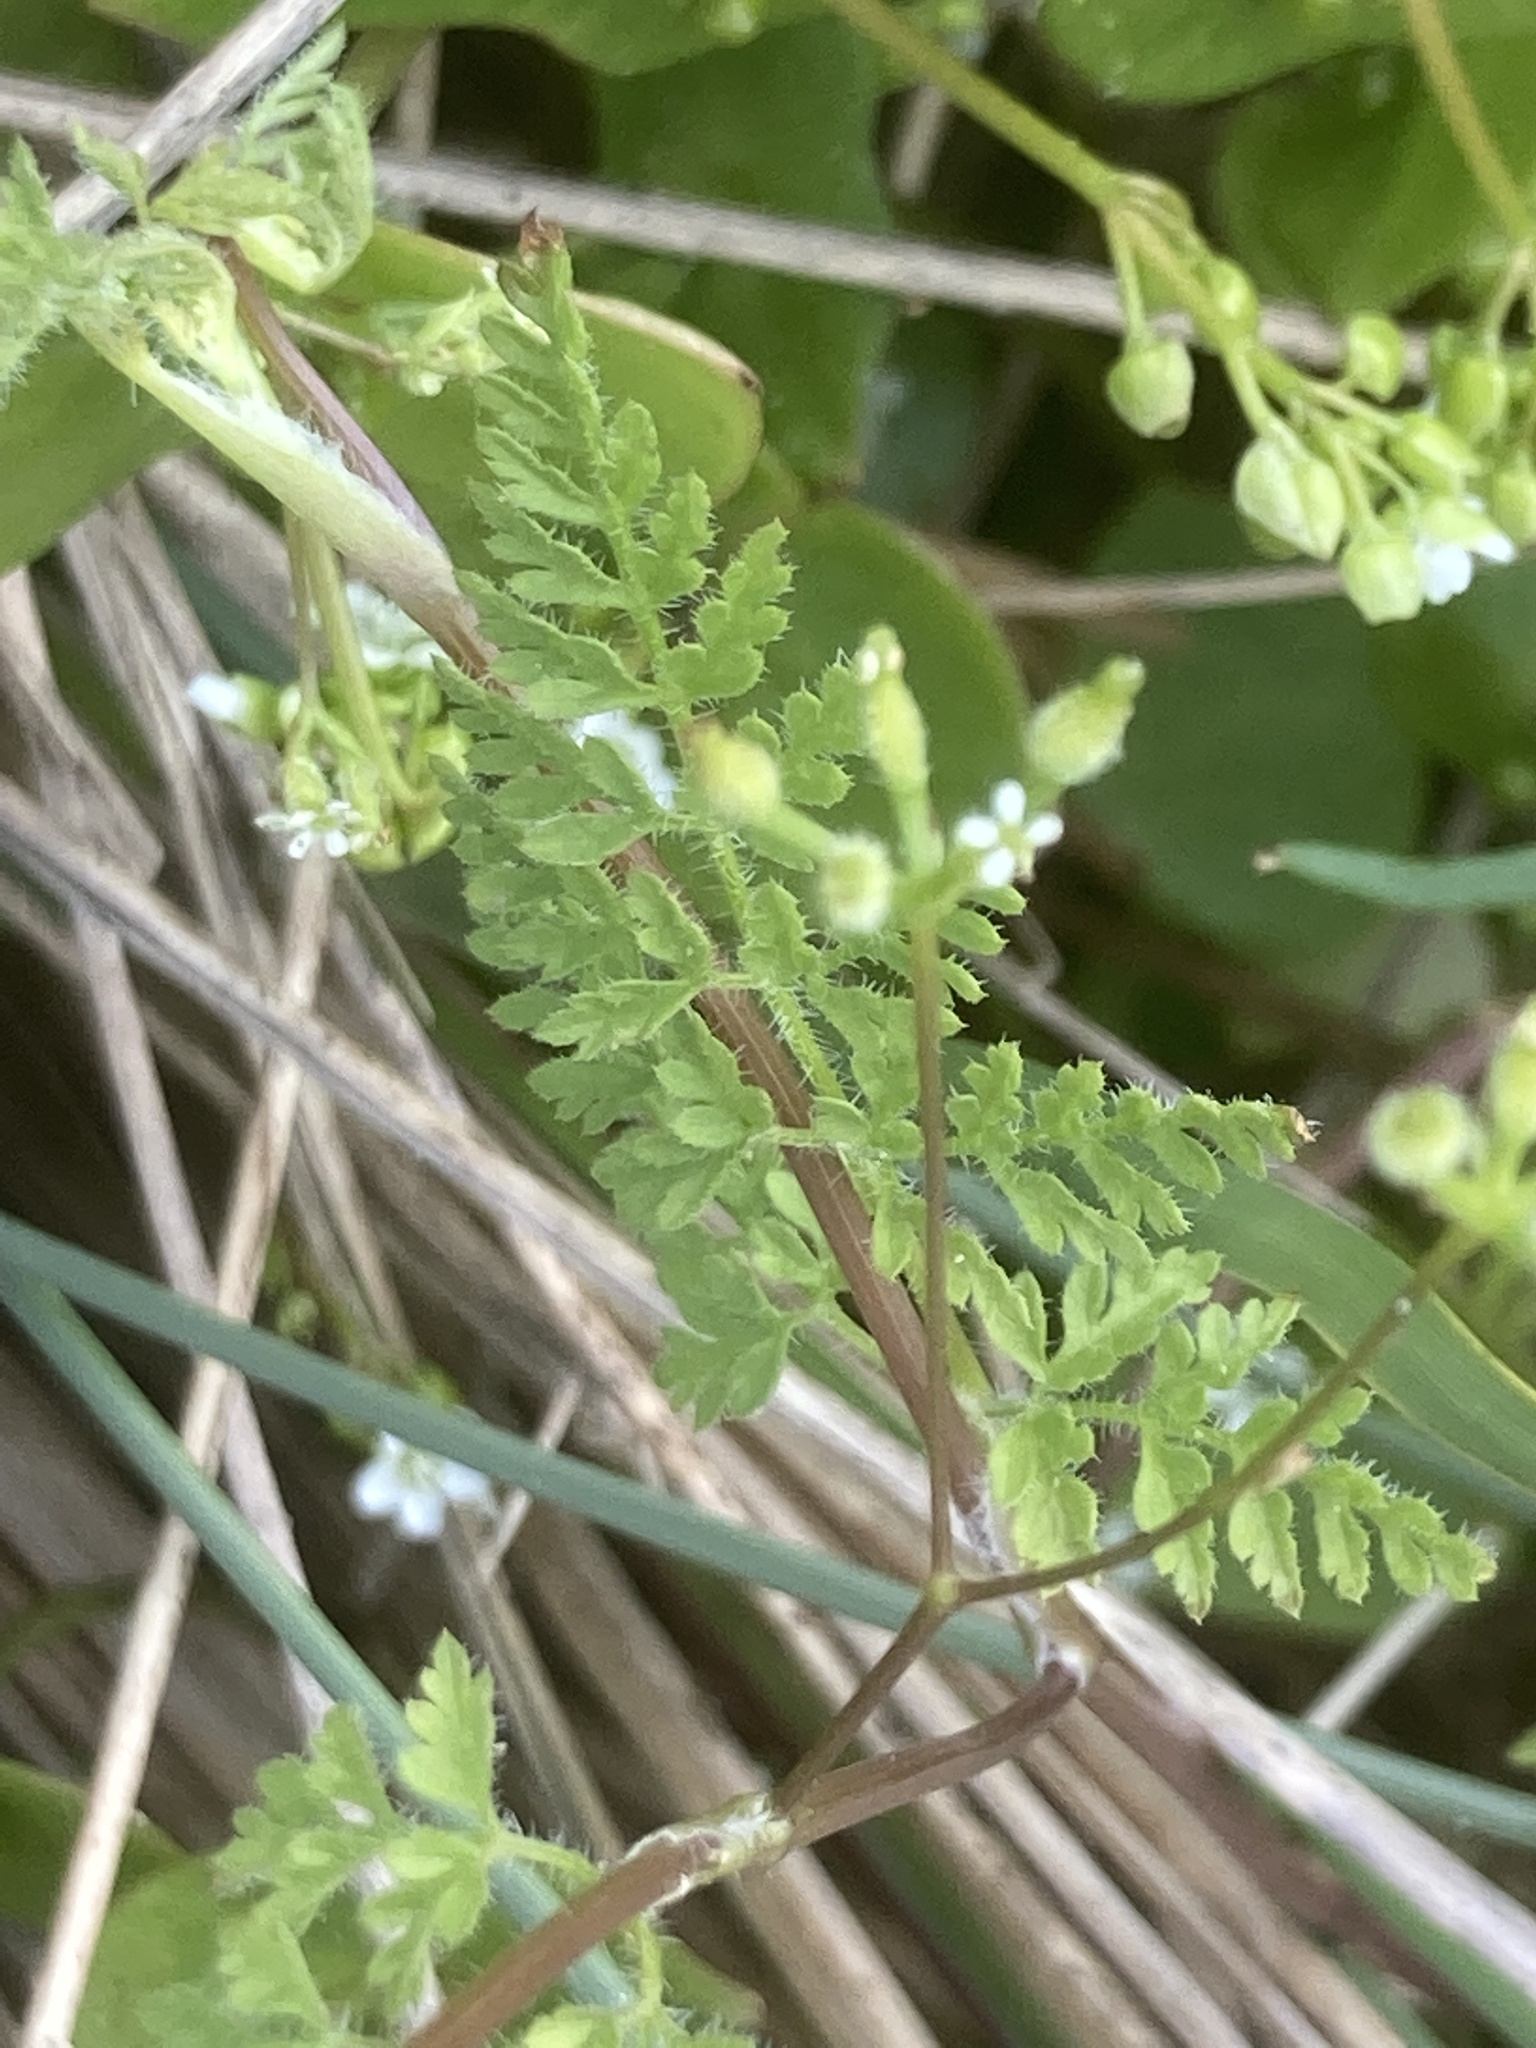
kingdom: Plantae
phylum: Tracheophyta
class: Magnoliopsida
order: Apiales
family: Apiaceae
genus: Anthriscus
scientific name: Anthriscus caucalis
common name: Bur chervil
